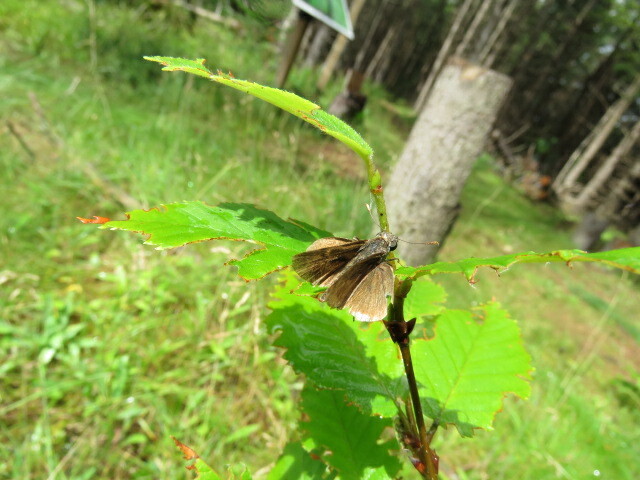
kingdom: Animalia
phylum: Arthropoda
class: Insecta
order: Lepidoptera
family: Hesperiidae
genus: Euphyes
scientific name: Euphyes vestris
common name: Dun skipper
